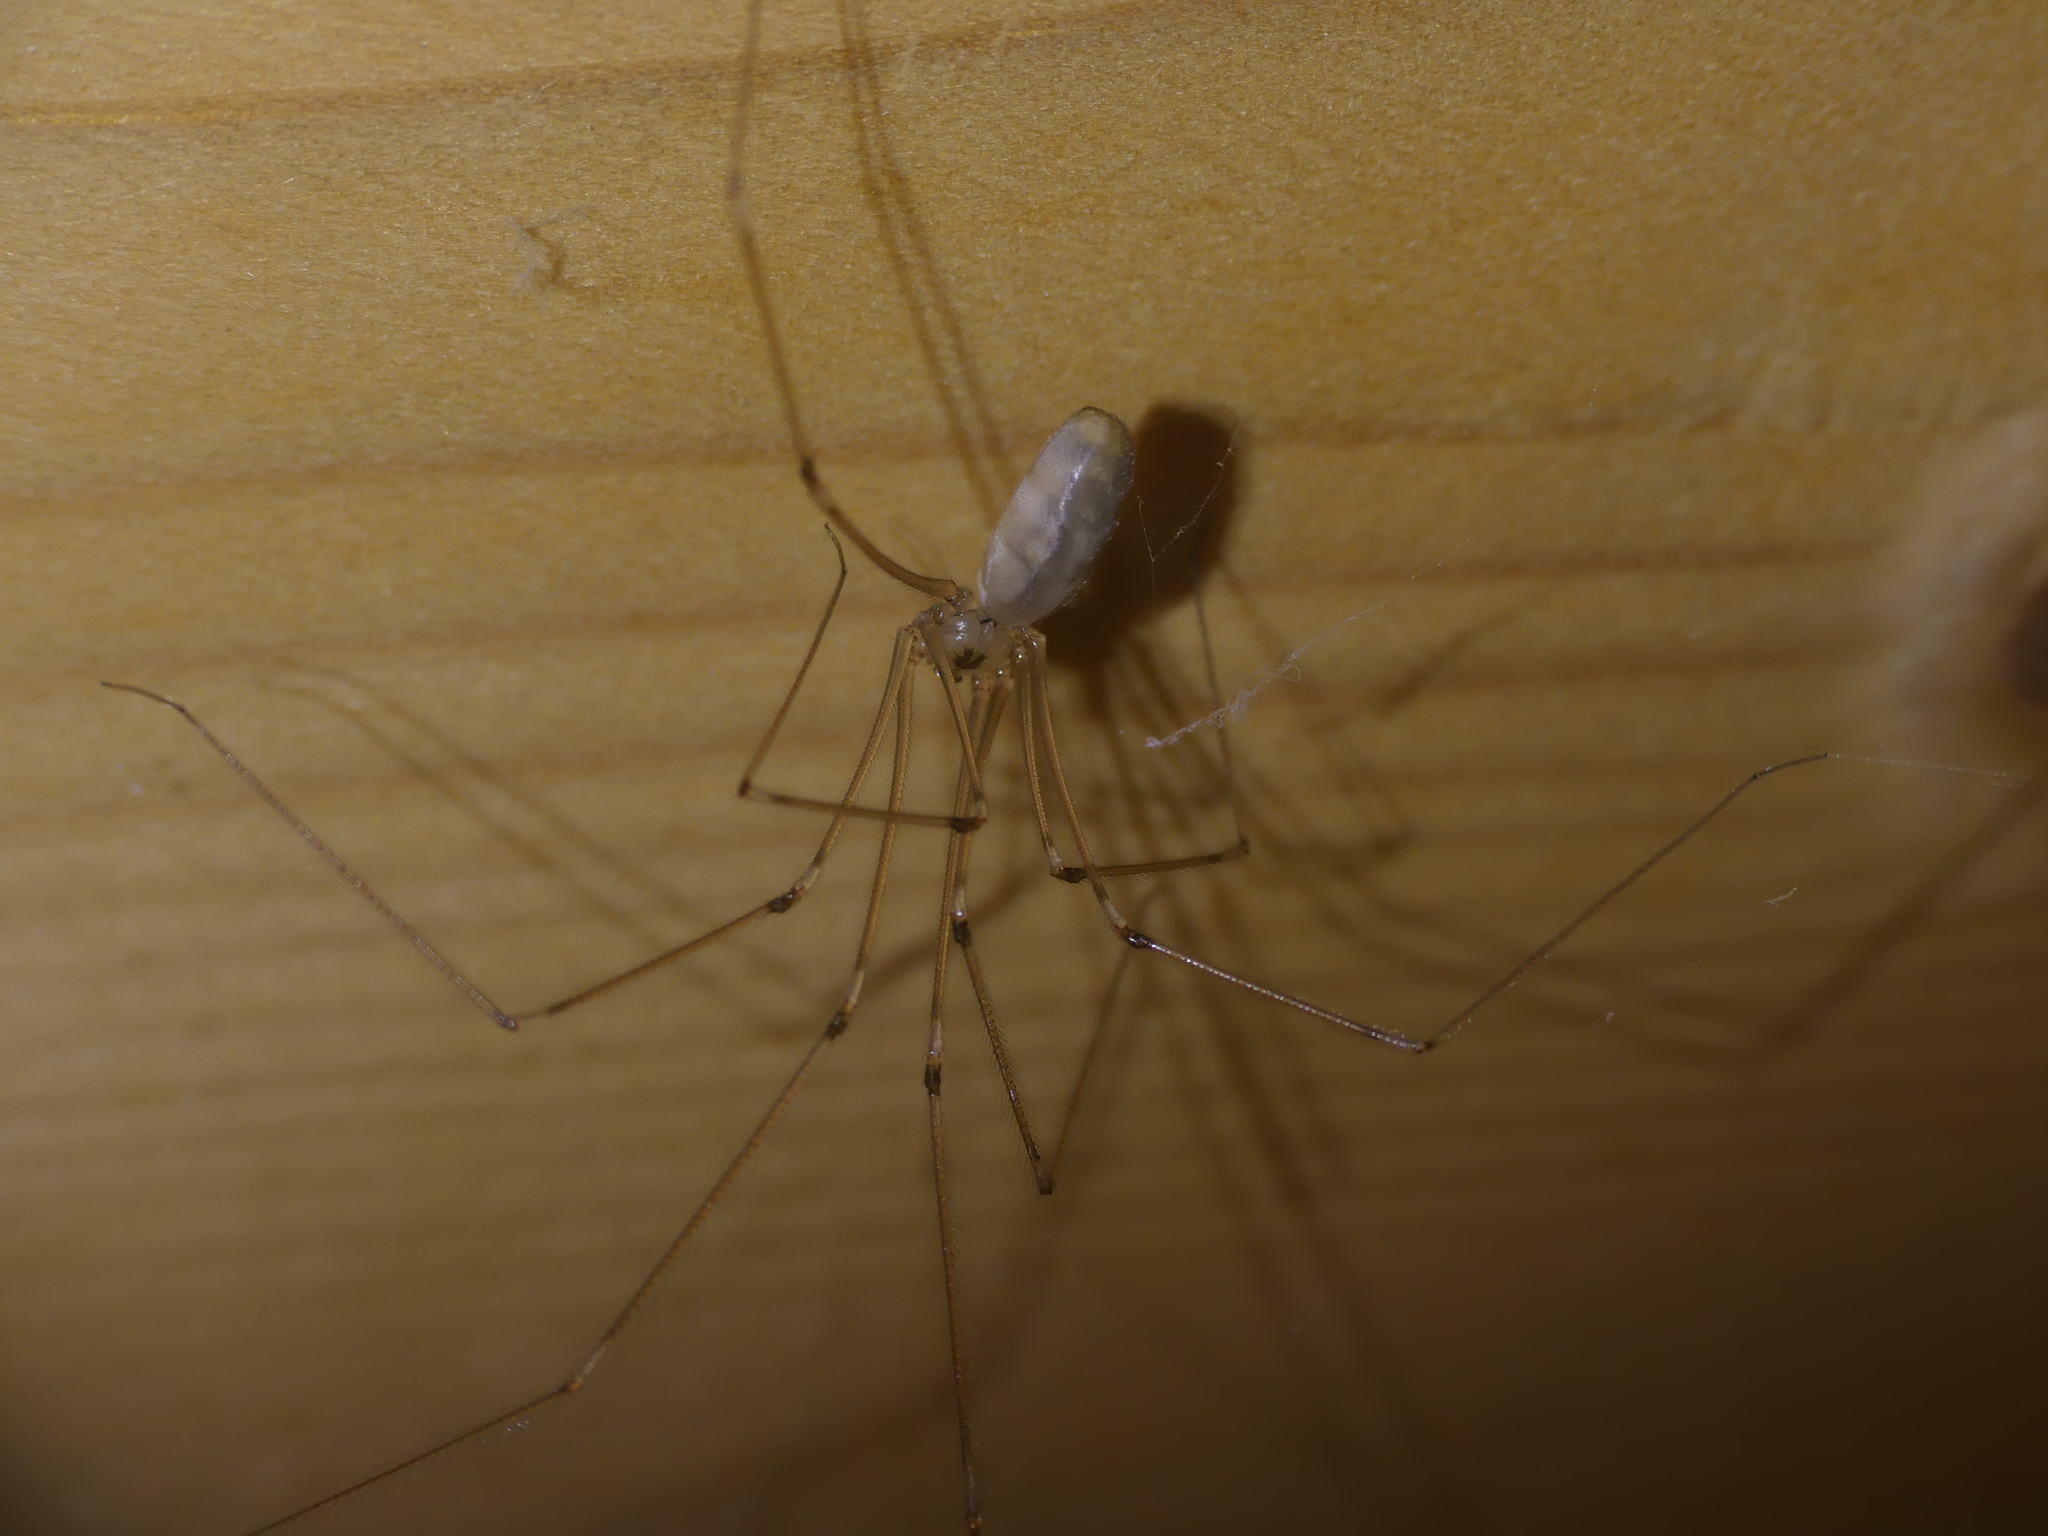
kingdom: Animalia
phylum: Arthropoda
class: Arachnida
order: Araneae
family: Pholcidae
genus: Pholcus
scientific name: Pholcus phalangioides
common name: Longbodied cellar spider
